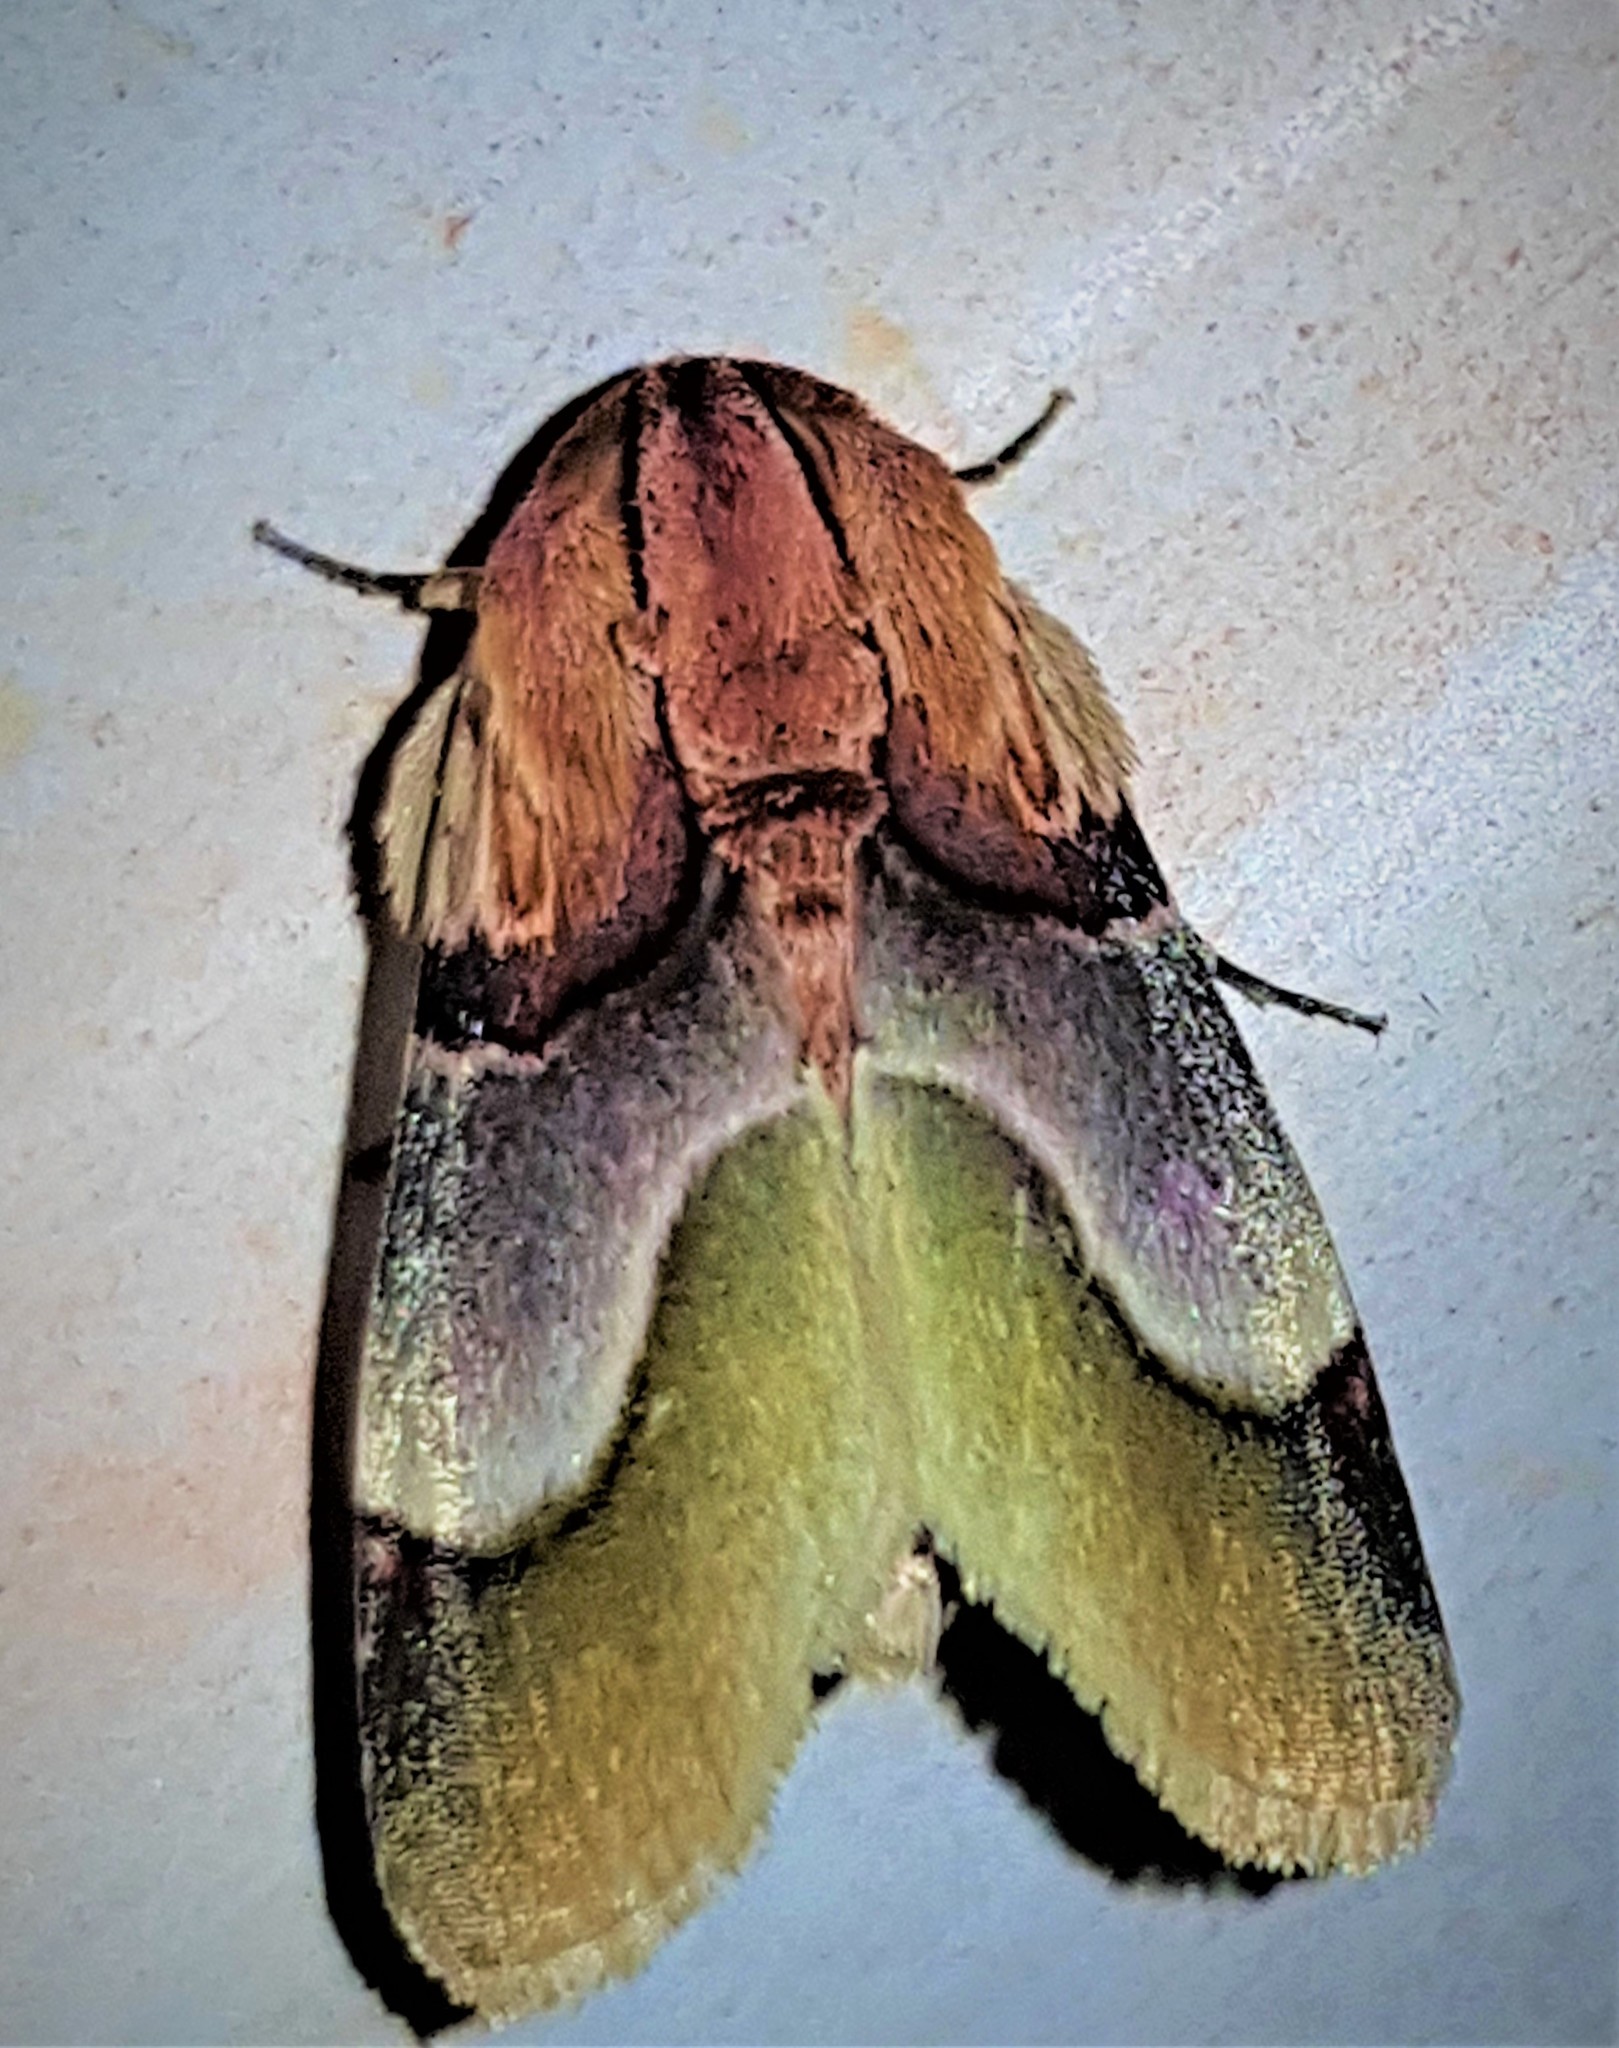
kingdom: Animalia
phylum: Arthropoda
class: Insecta
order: Lepidoptera
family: Noctuidae
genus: Chalcoecia
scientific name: Chalcoecia emessa
